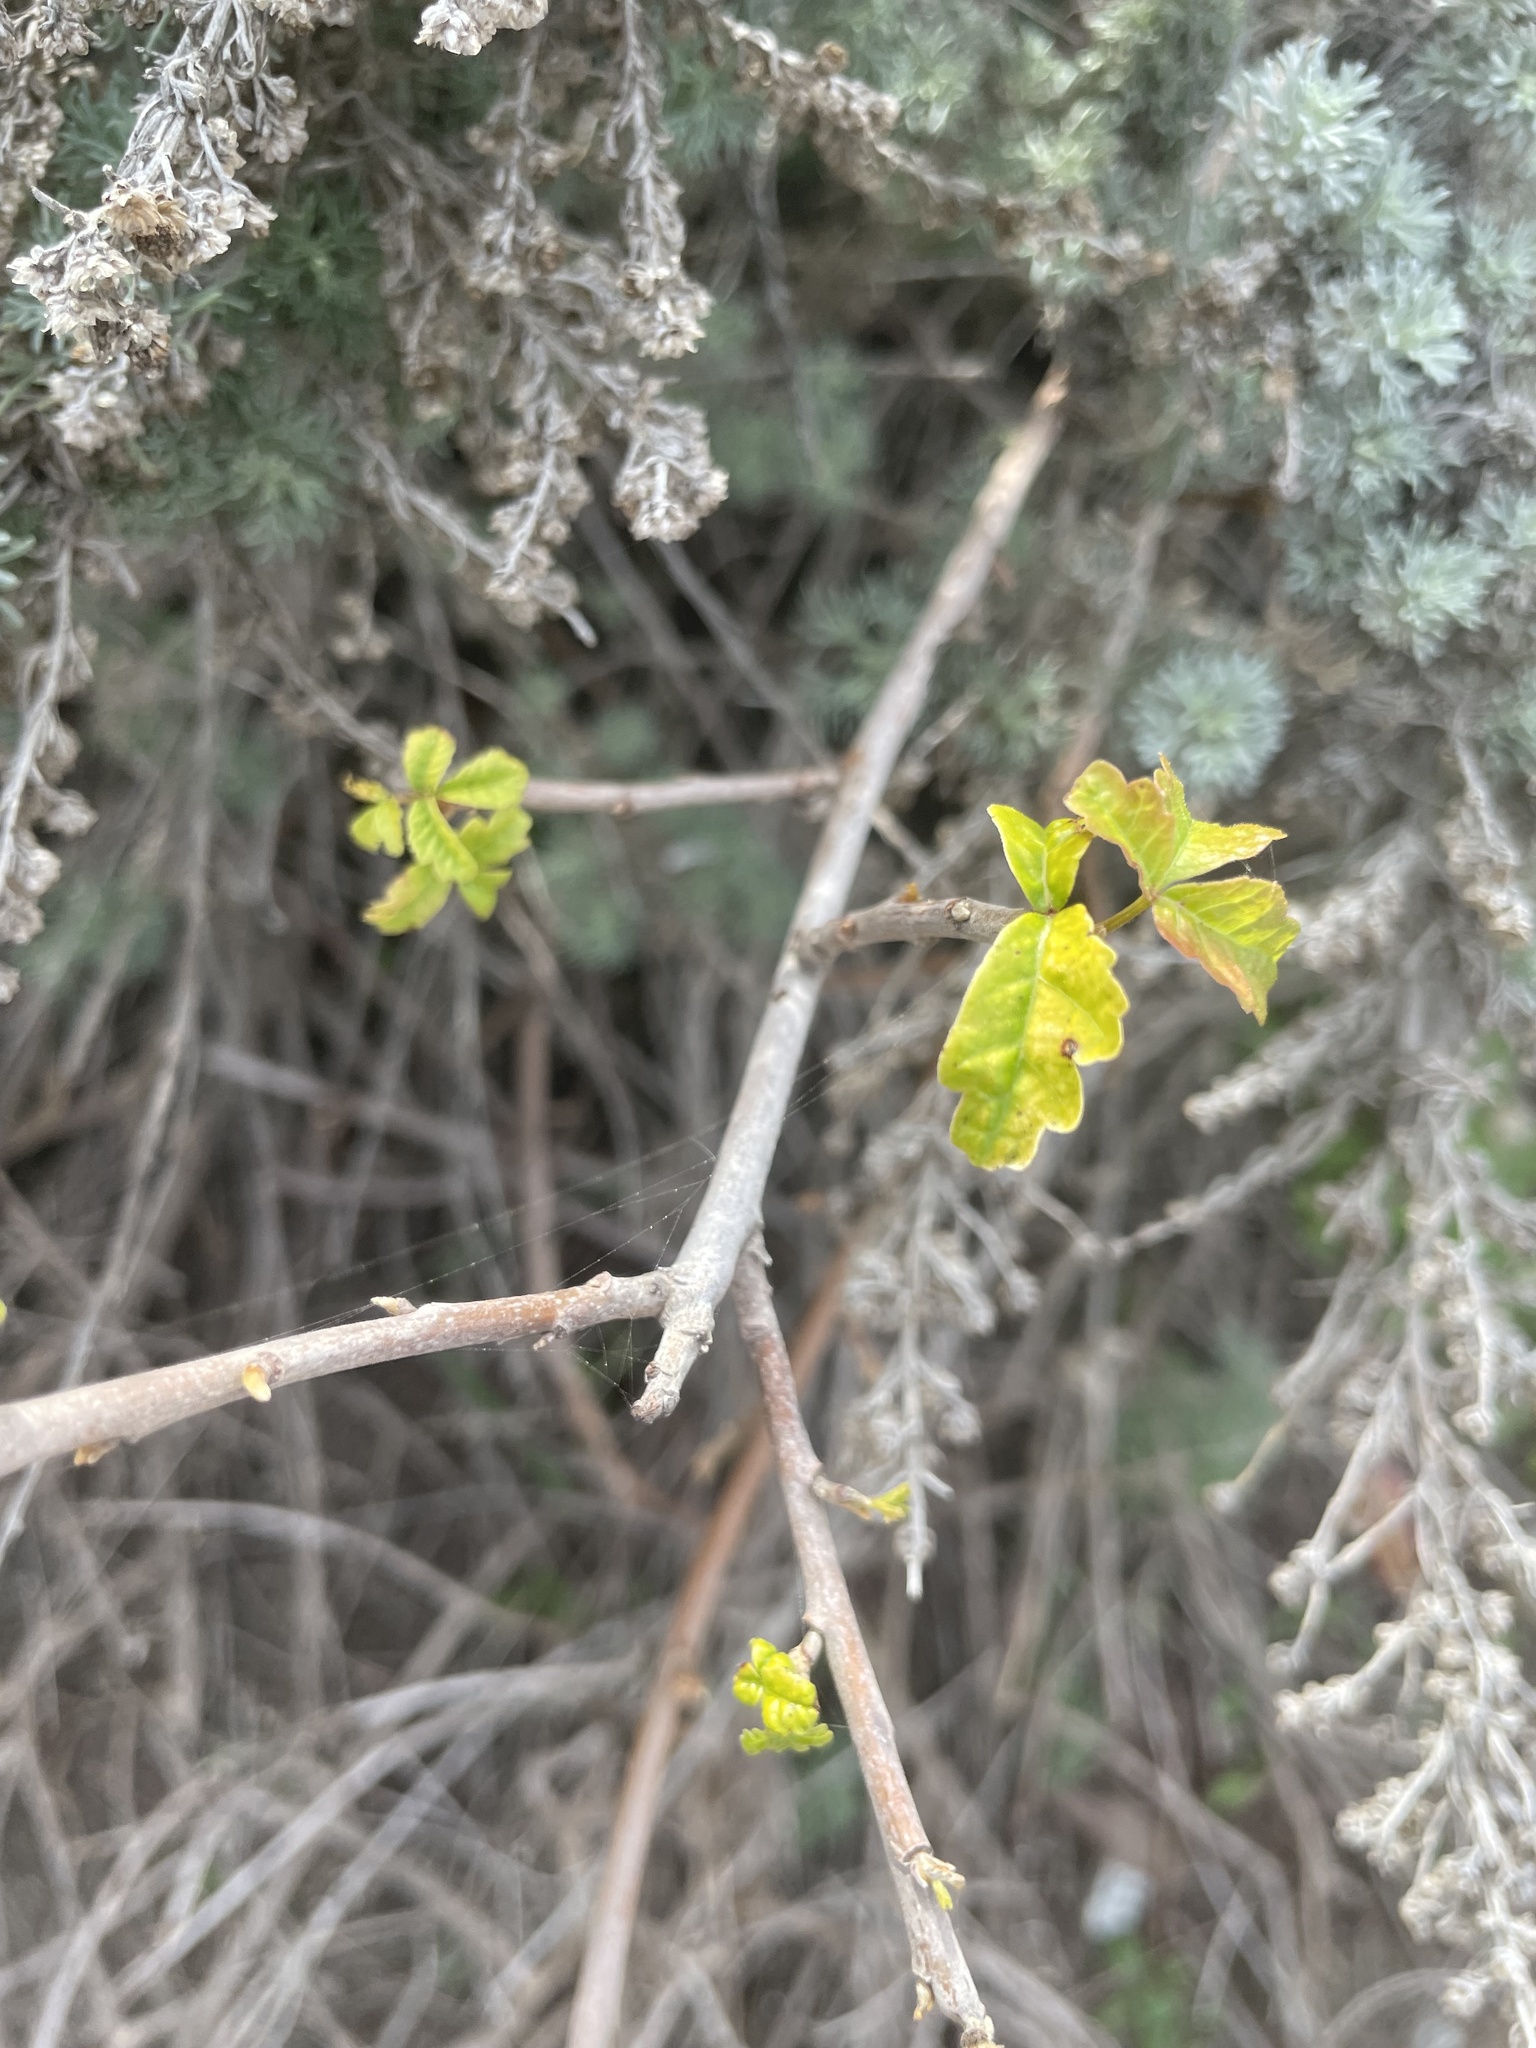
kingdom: Plantae
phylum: Tracheophyta
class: Magnoliopsida
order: Sapindales
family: Anacardiaceae
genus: Toxicodendron
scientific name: Toxicodendron diversilobum
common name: Pacific poison-oak
